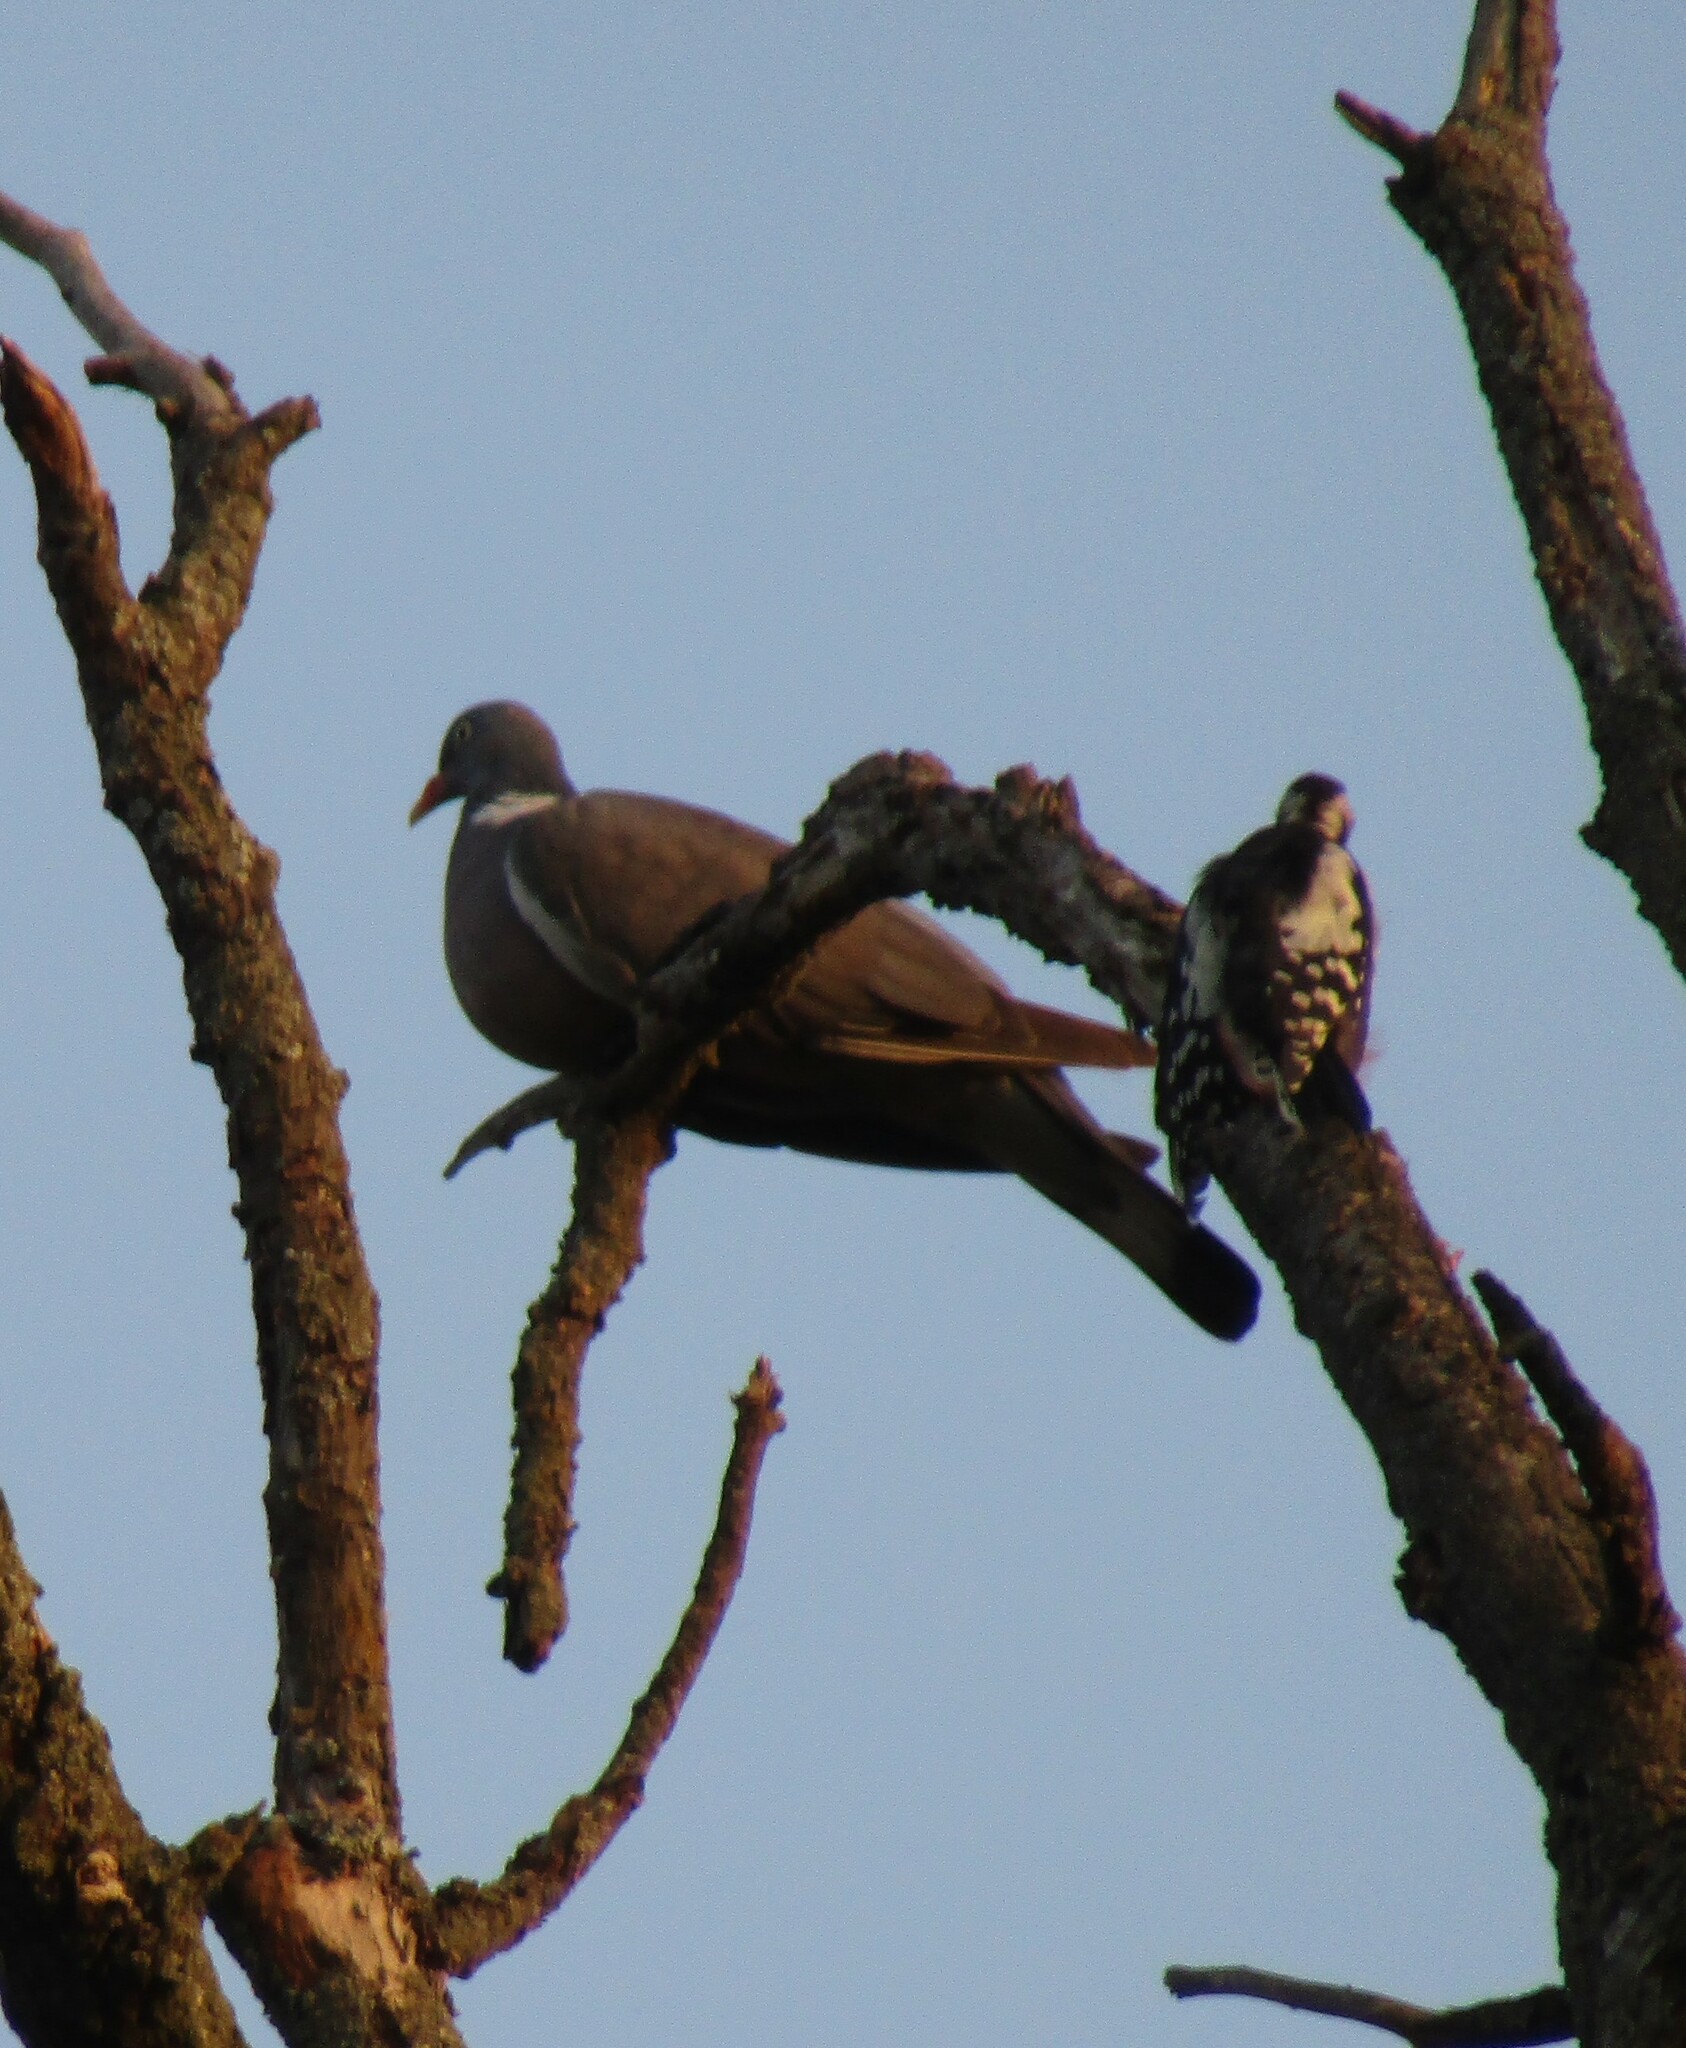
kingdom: Animalia
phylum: Chordata
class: Aves
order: Columbiformes
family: Columbidae
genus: Columba
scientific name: Columba palumbus
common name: Common wood pigeon
